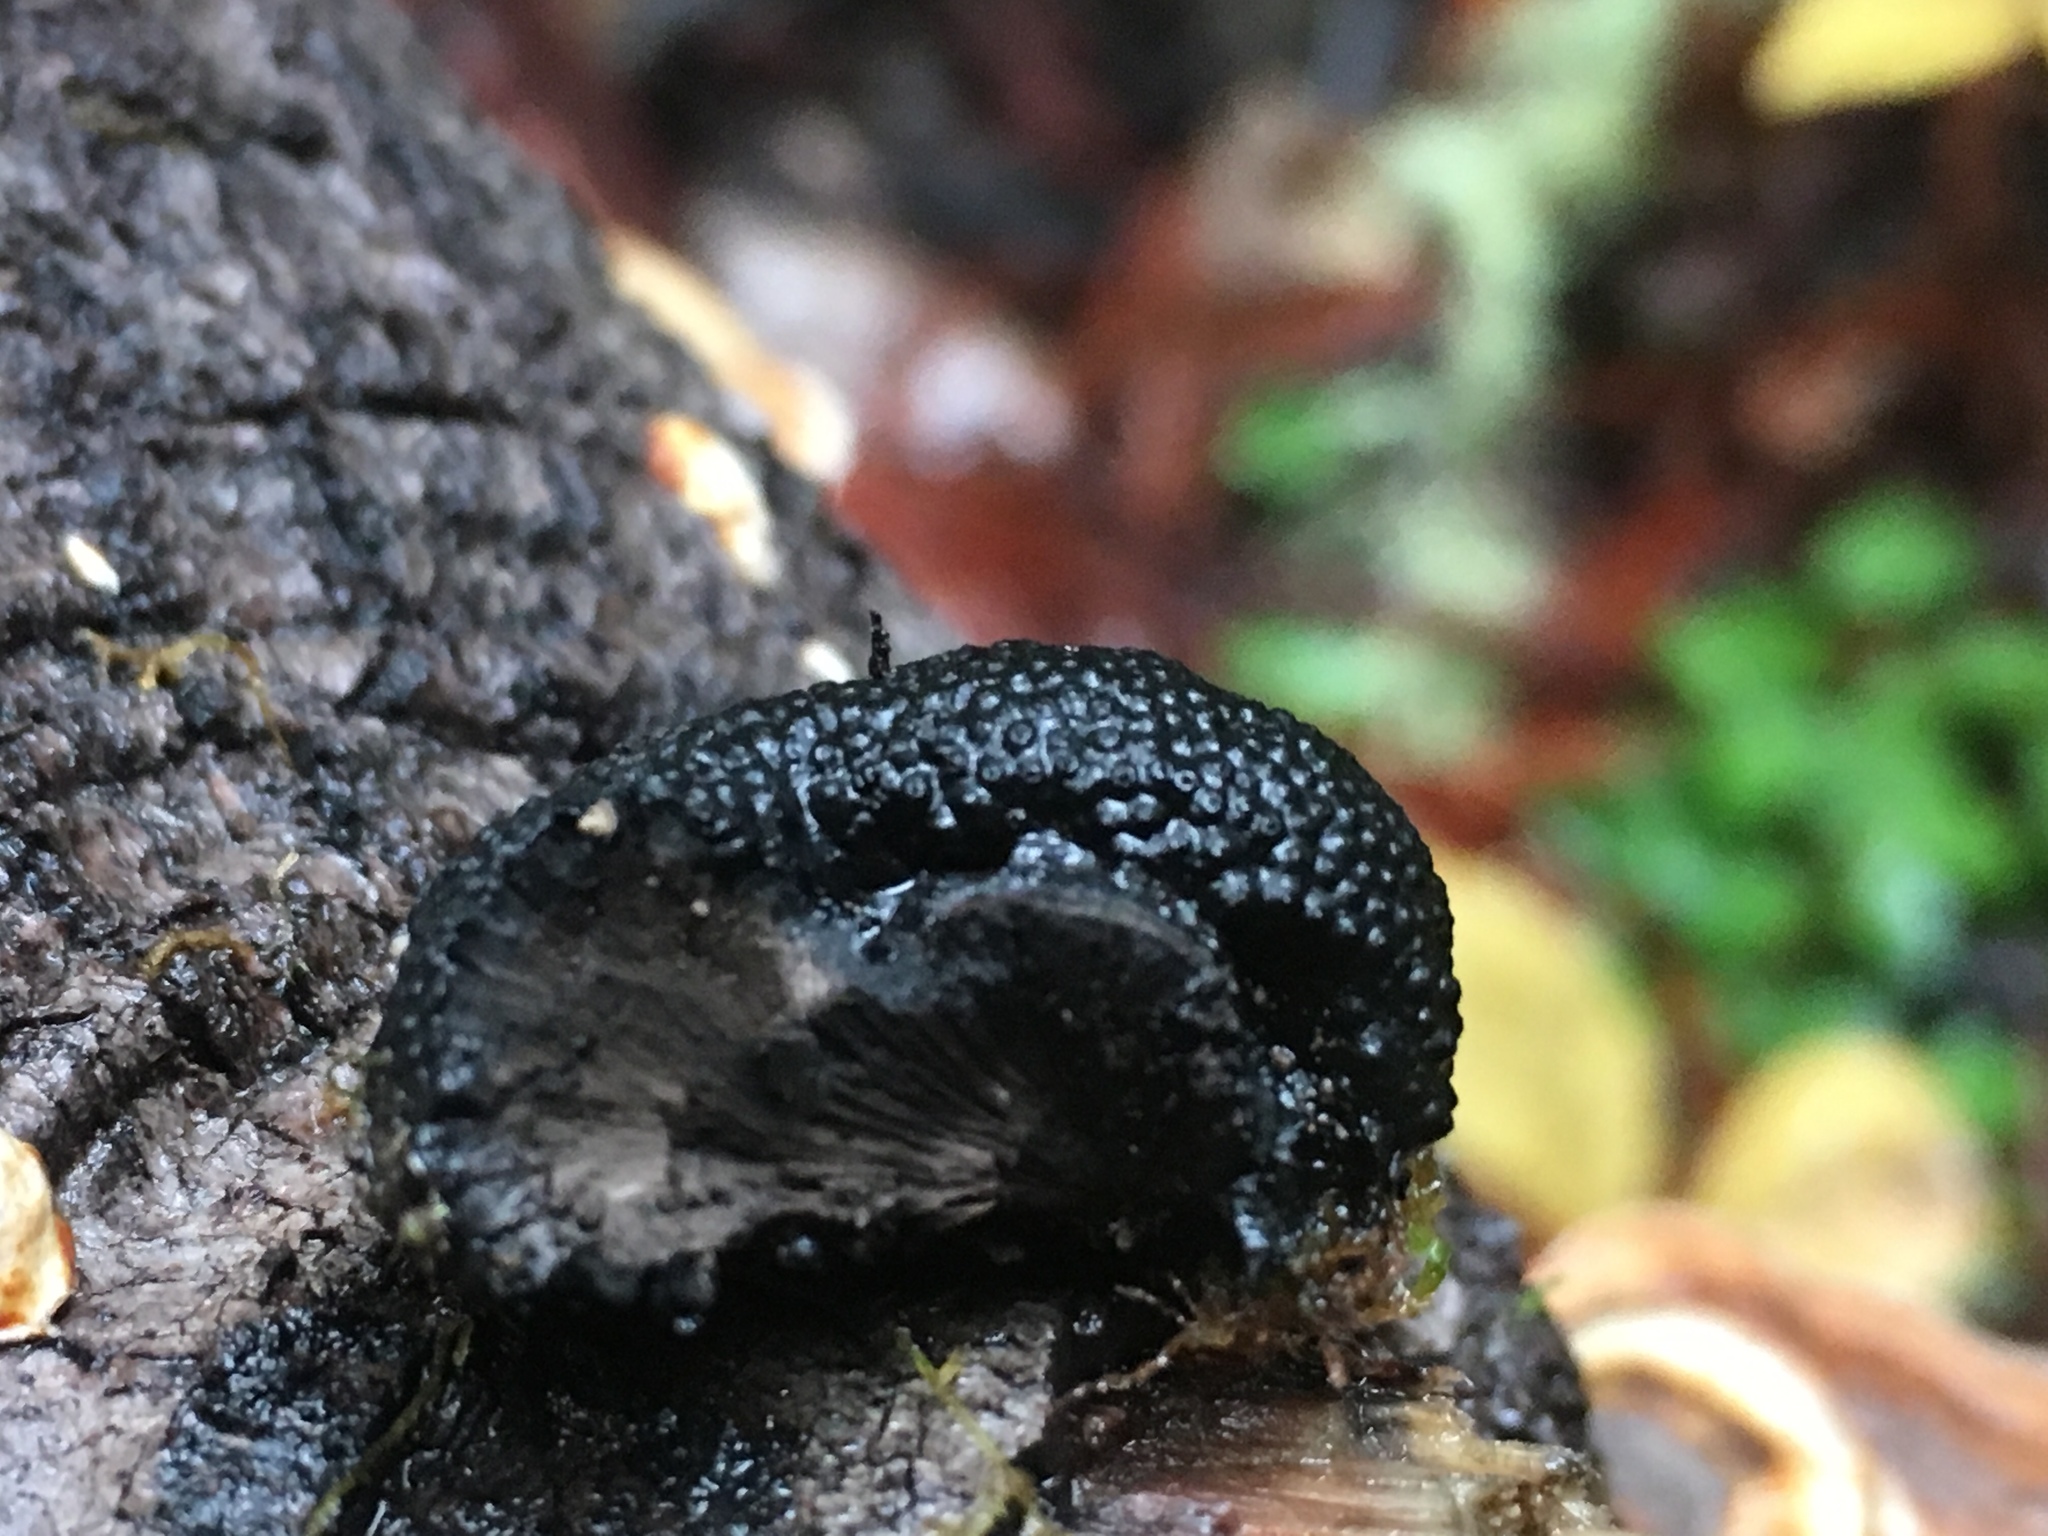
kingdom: Fungi
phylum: Ascomycota
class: Sordariomycetes
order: Xylariales
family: Hypoxylaceae
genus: Annulohypoxylon
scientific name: Annulohypoxylon thouarsianum
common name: Cramp balls
